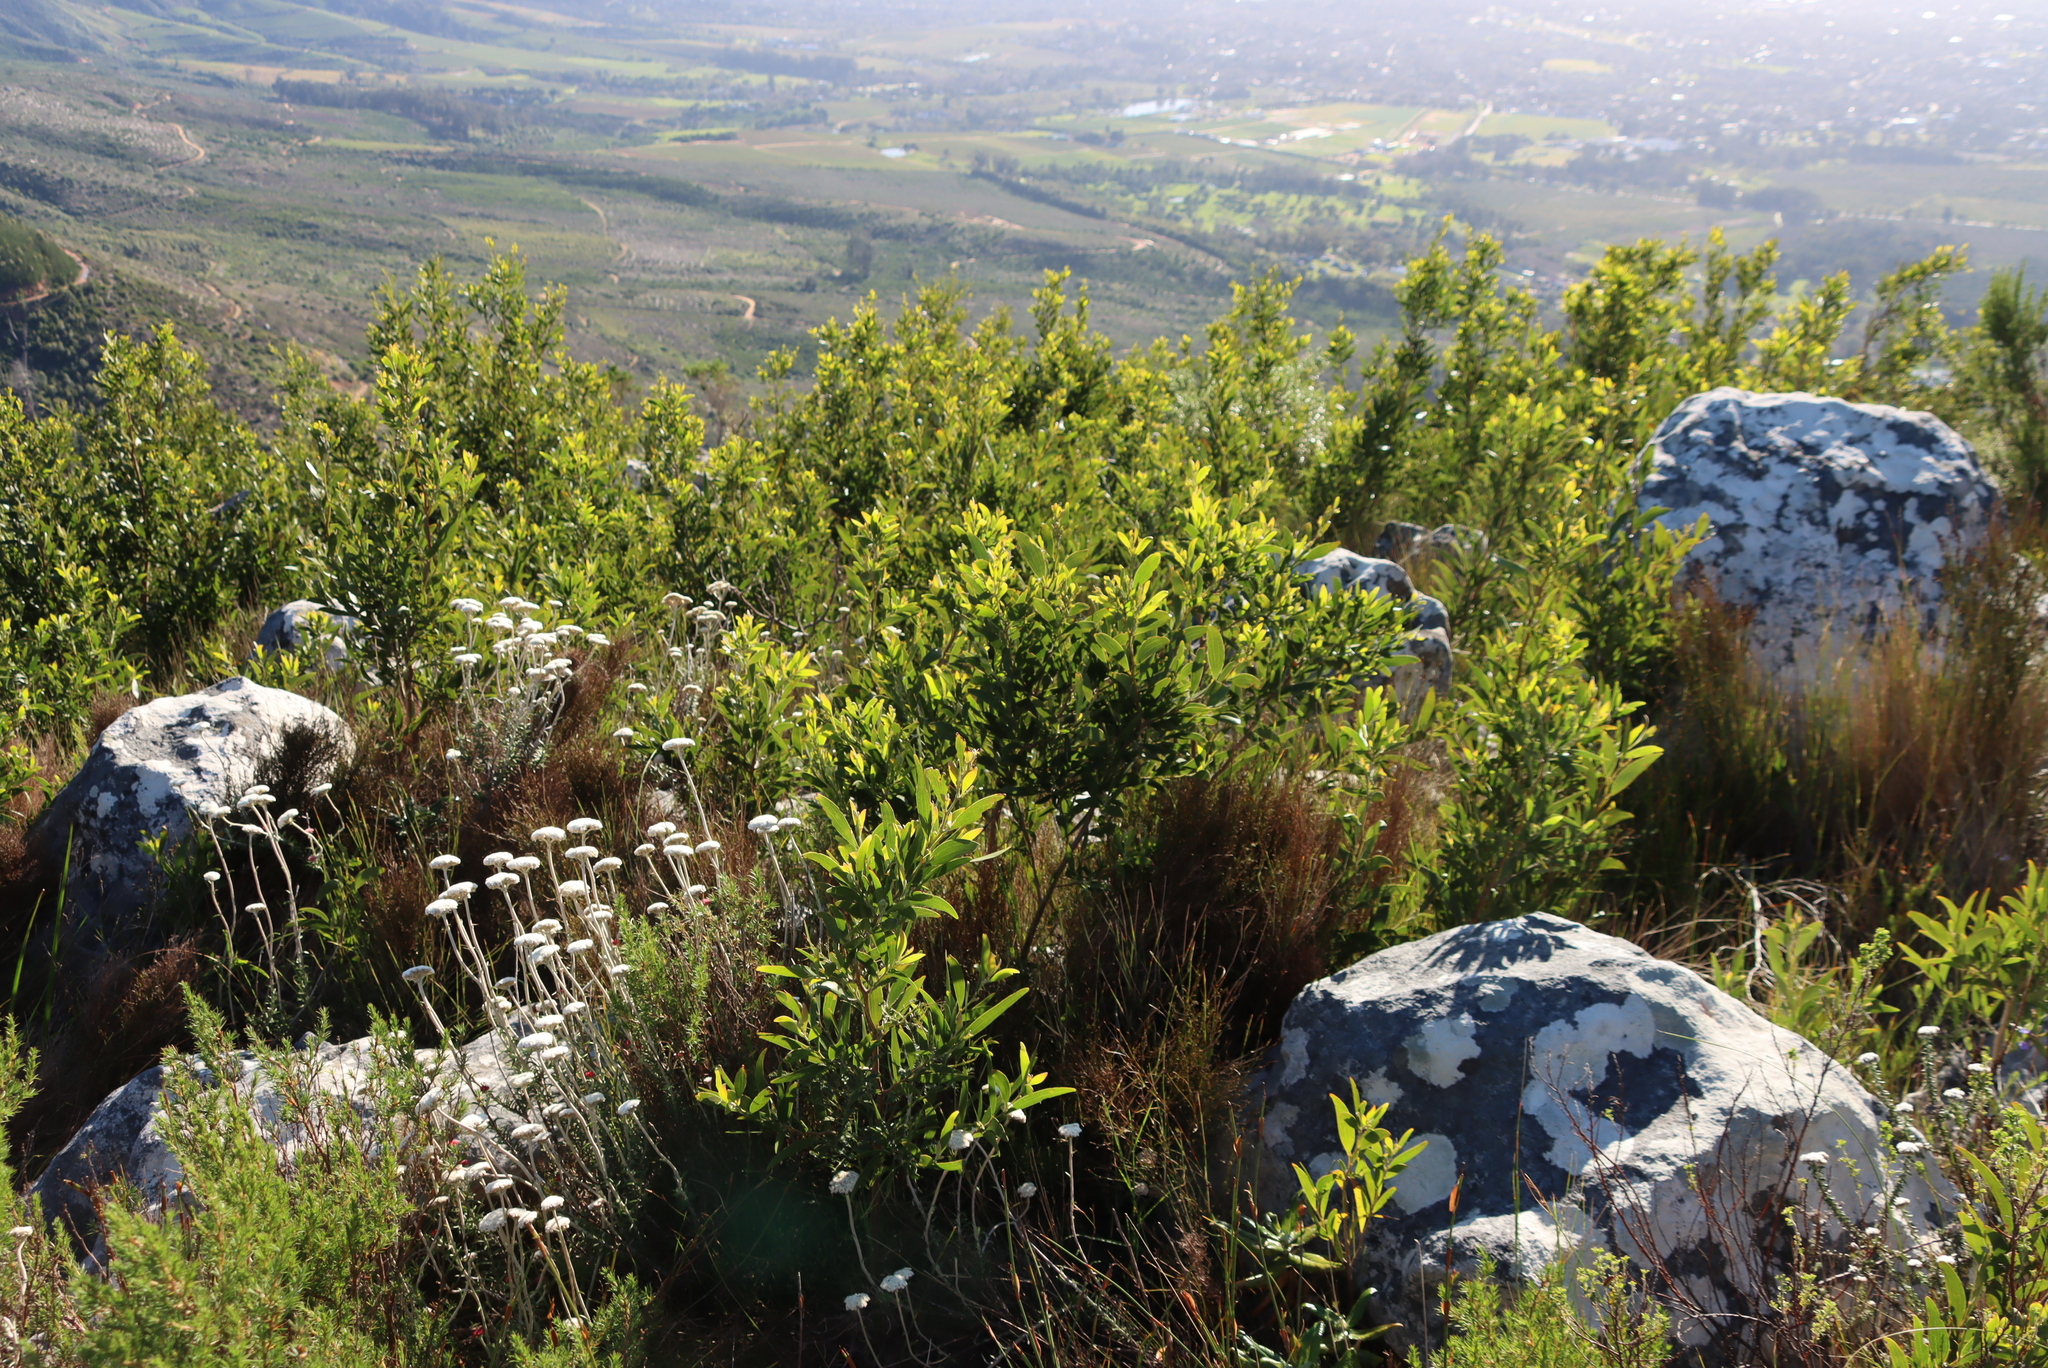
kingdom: Plantae
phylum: Tracheophyta
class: Magnoliopsida
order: Fabales
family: Fabaceae
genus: Acacia
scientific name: Acacia melanoxylon
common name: Blackwood
